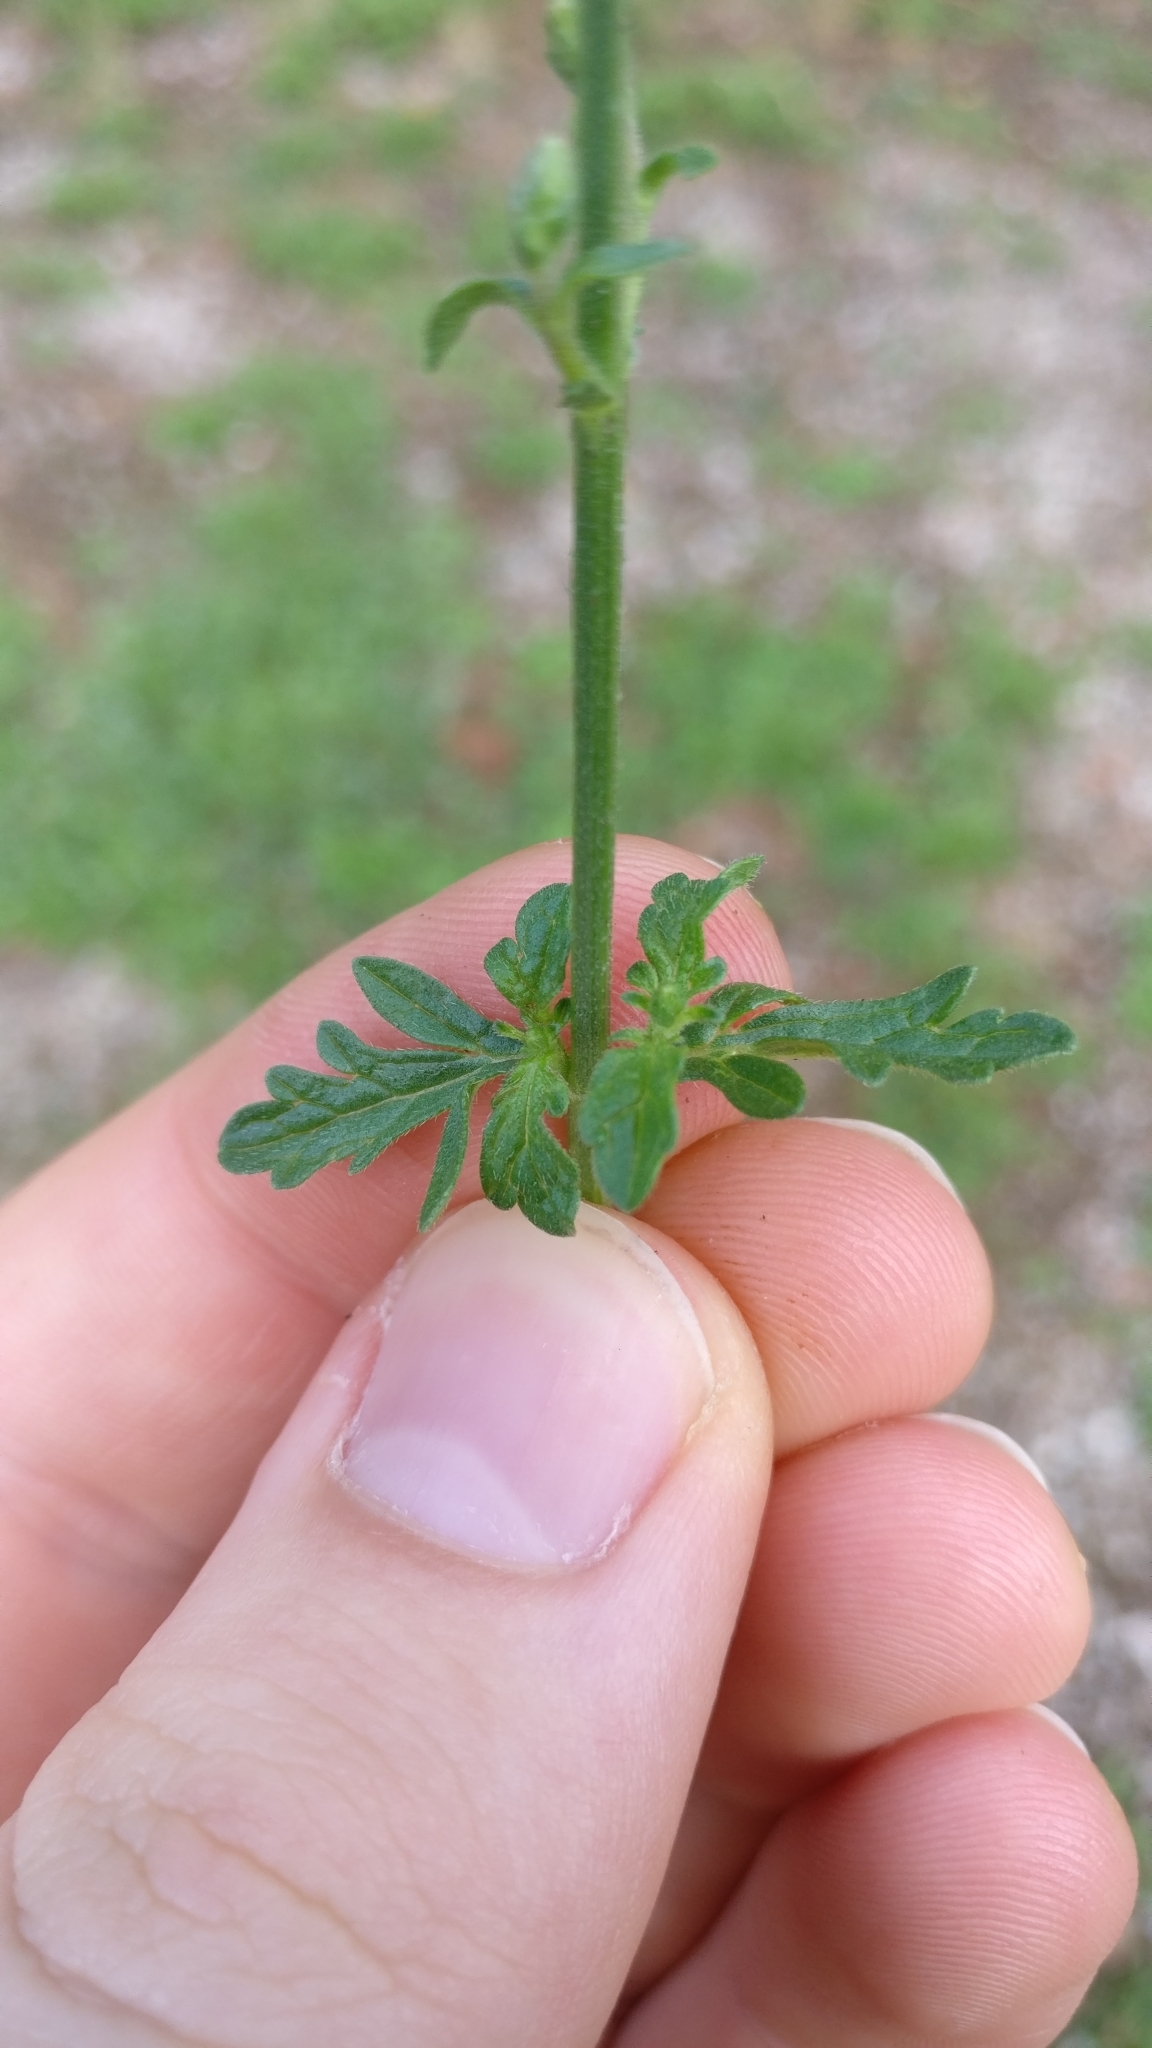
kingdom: Plantae
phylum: Tracheophyta
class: Magnoliopsida
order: Lamiales
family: Verbenaceae
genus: Verbena
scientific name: Verbena officinalis
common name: Vervain
